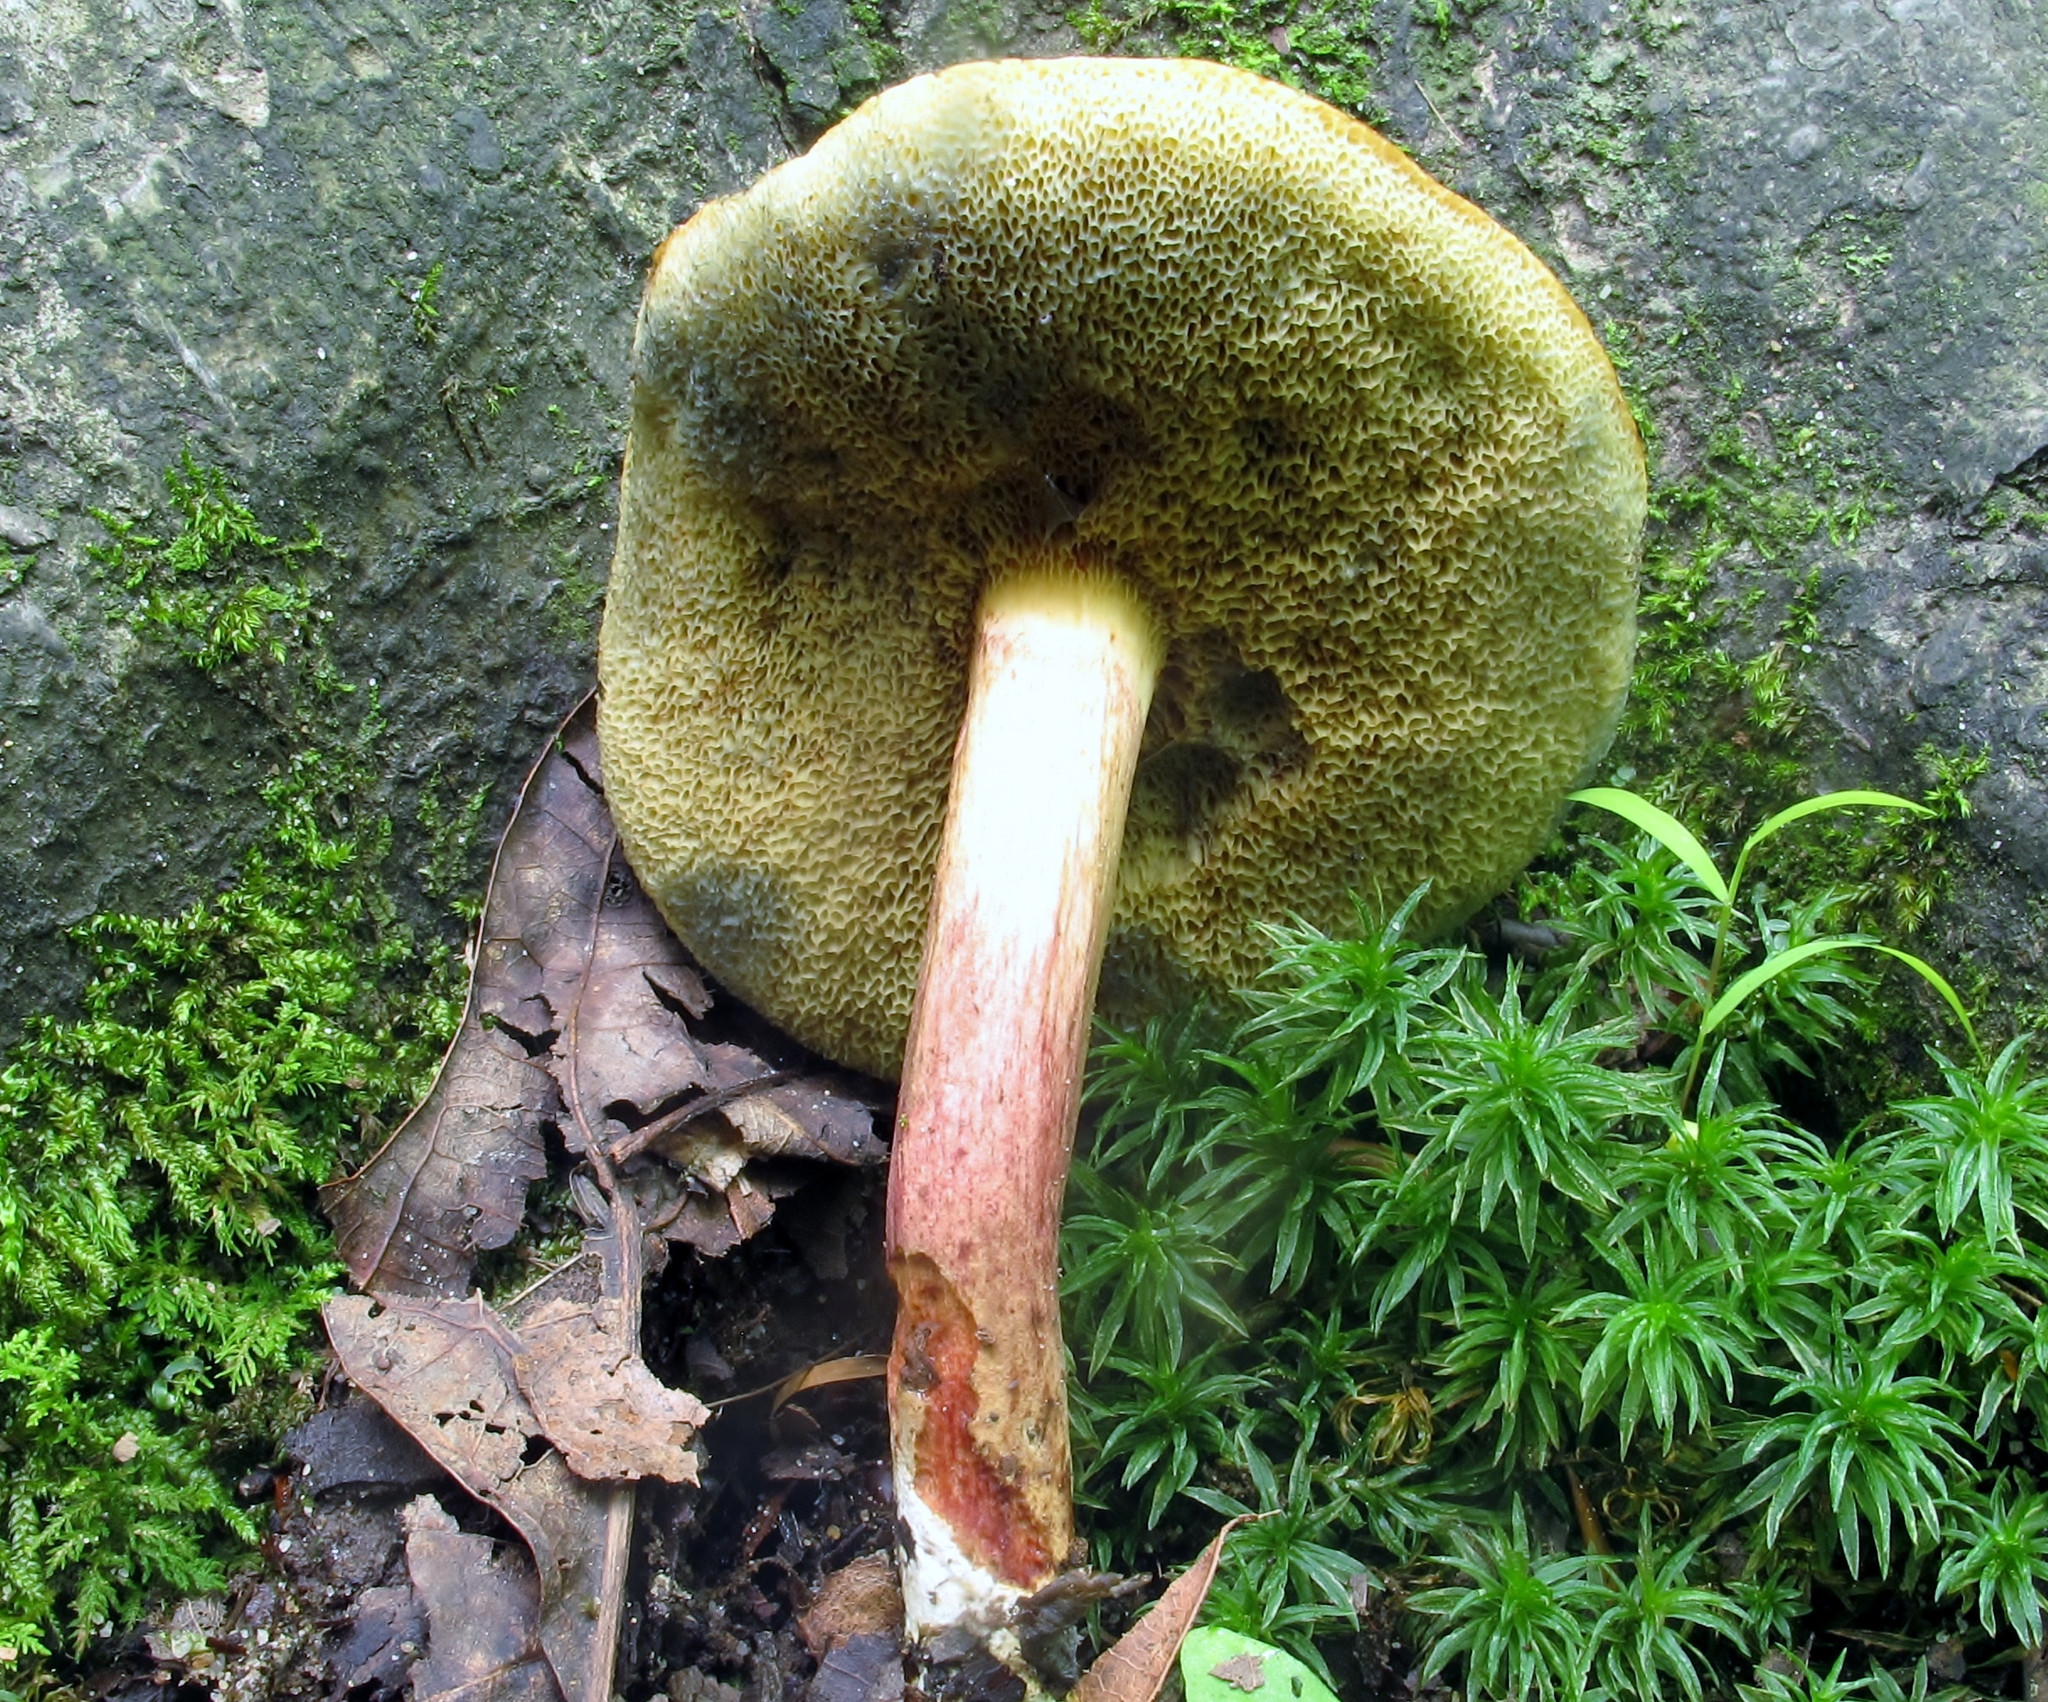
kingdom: Fungi
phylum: Basidiomycota
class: Agaricomycetes
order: Boletales
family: Boletaceae
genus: Xerocomellus
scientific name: Xerocomellus chrysenteron
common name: Red-cracking bolete
